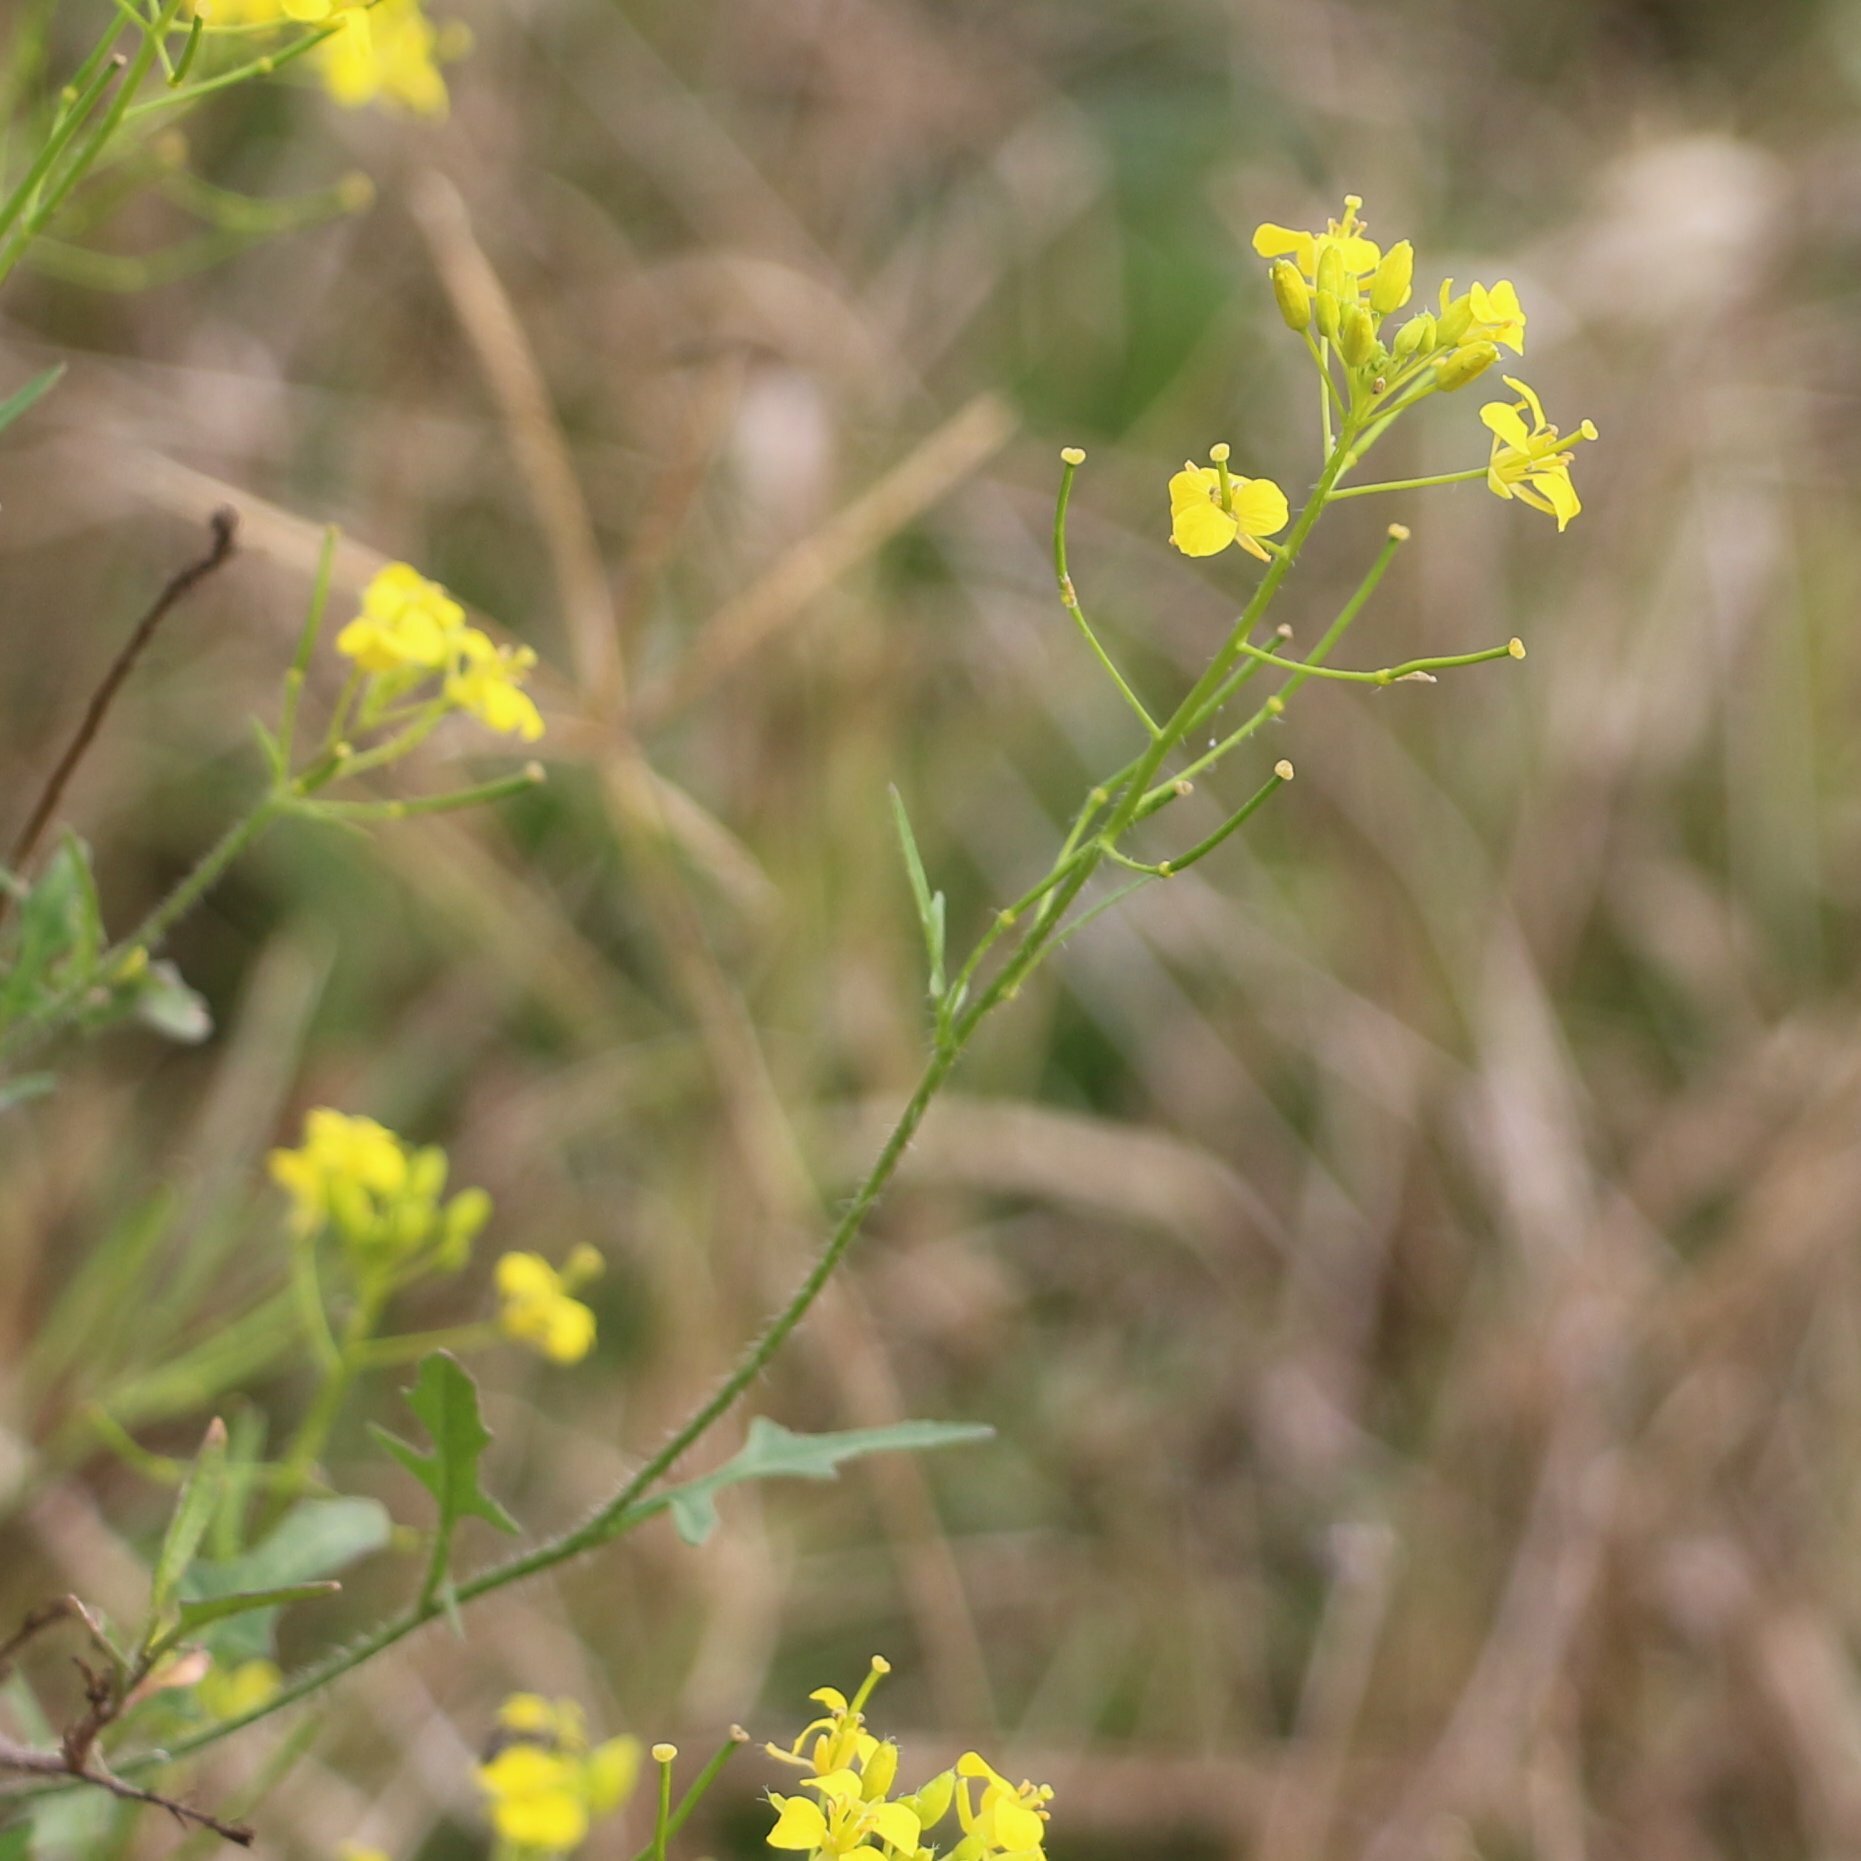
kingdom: Plantae
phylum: Tracheophyta
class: Magnoliopsida
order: Brassicales
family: Brassicaceae
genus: Sisymbrium
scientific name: Sisymbrium loeselii
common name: False london-rocket
